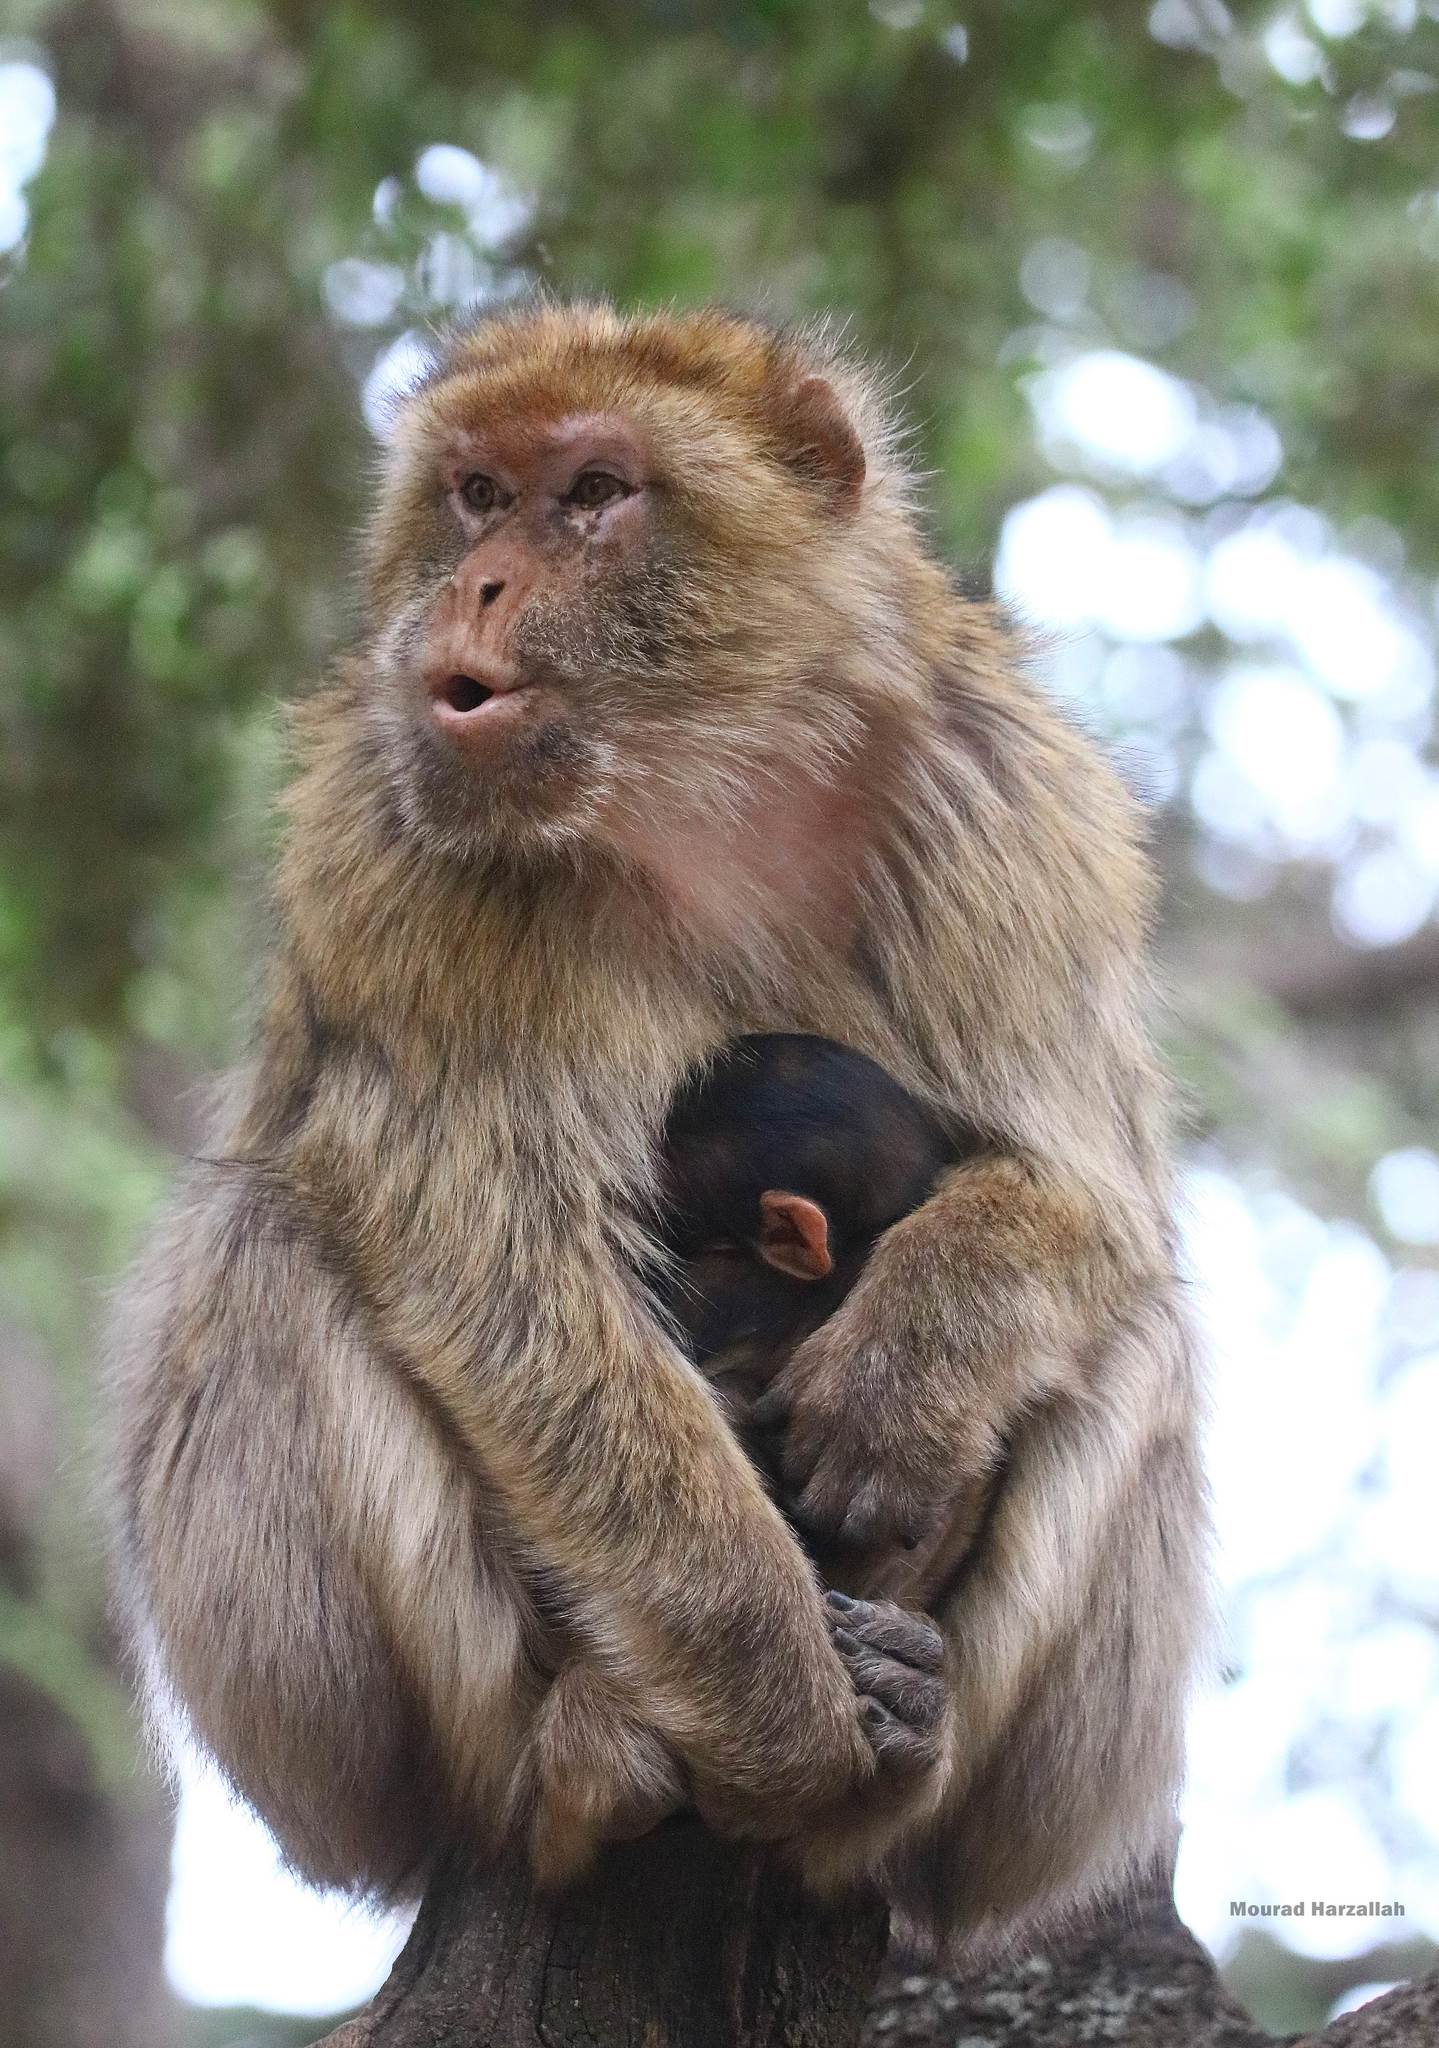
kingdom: Animalia
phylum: Chordata
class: Mammalia
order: Primates
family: Cercopithecidae
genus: Macaca
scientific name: Macaca sylvanus
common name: Barbary macaque
